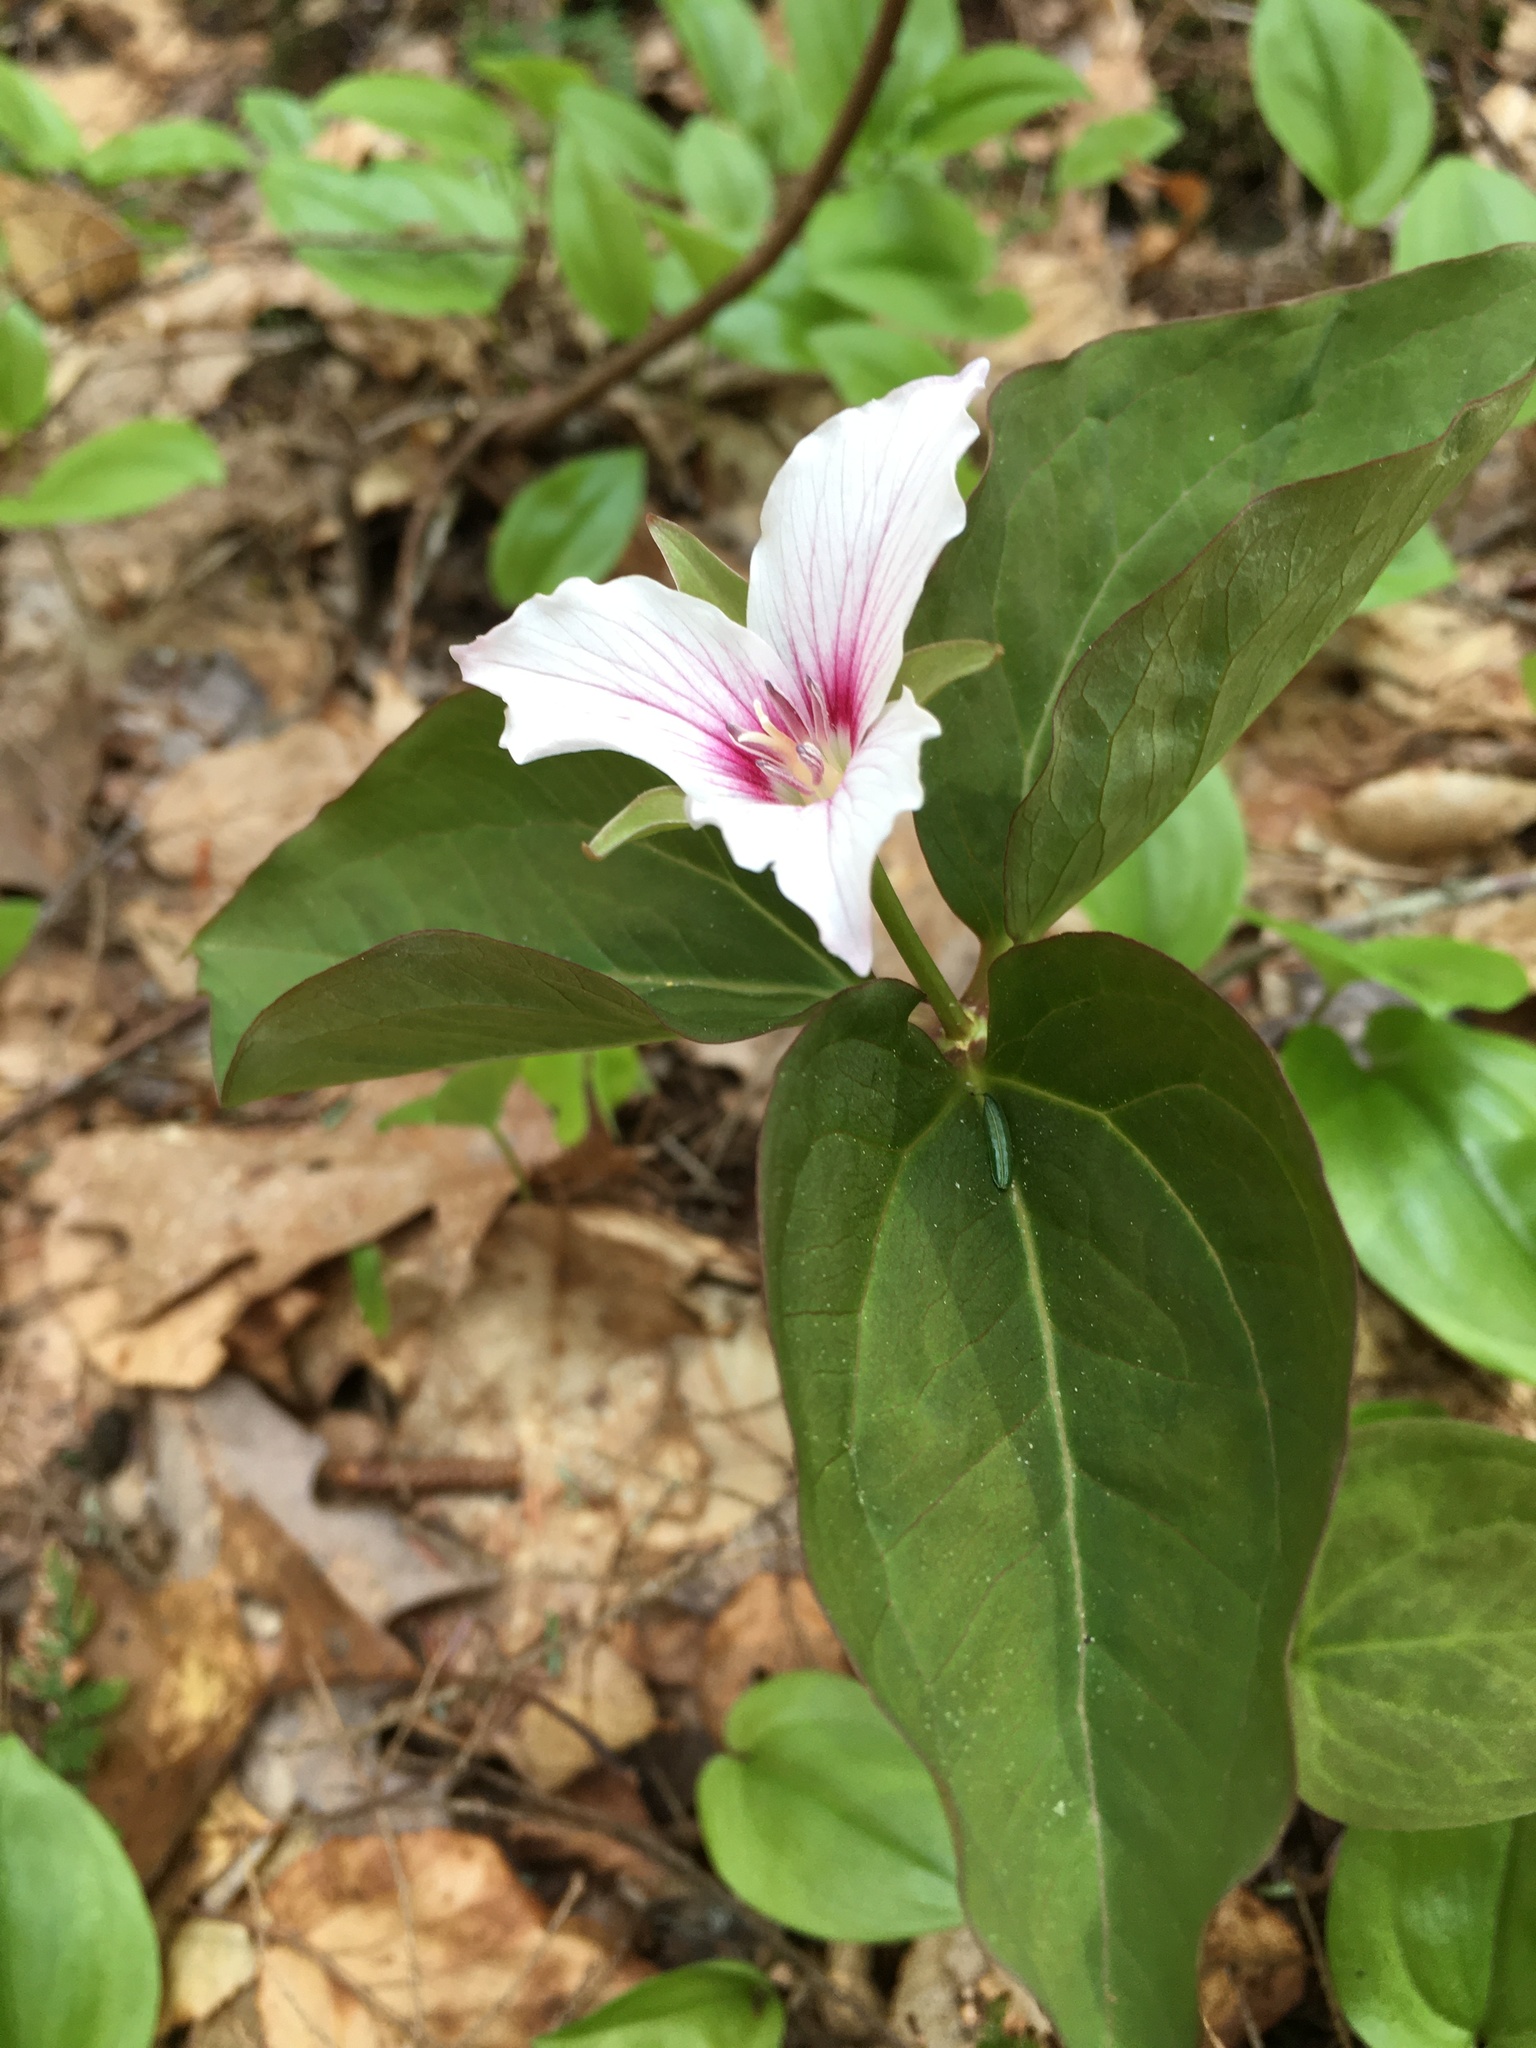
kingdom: Plantae
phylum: Tracheophyta
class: Liliopsida
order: Liliales
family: Melanthiaceae
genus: Trillium
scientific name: Trillium undulatum
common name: Paint trillium
